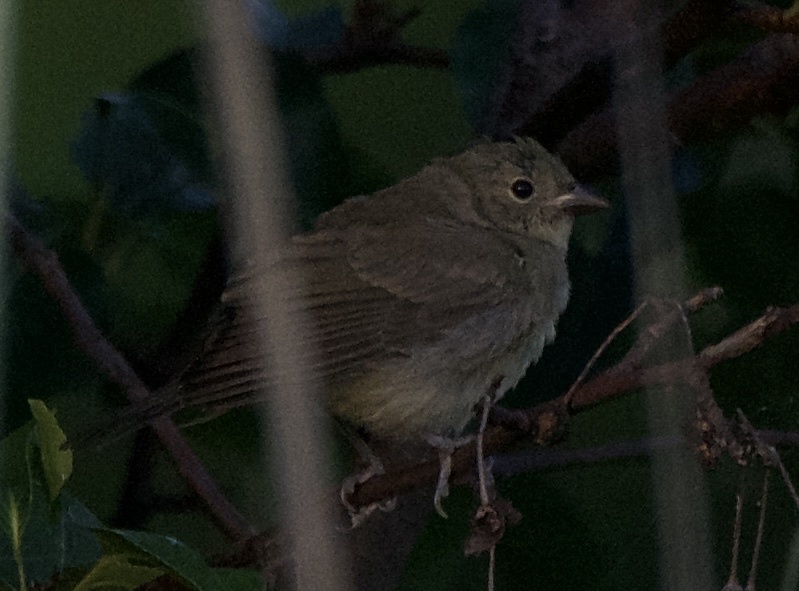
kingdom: Animalia
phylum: Chordata
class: Aves
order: Passeriformes
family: Cardinalidae
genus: Passerina
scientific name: Passerina ciris
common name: Painted bunting
